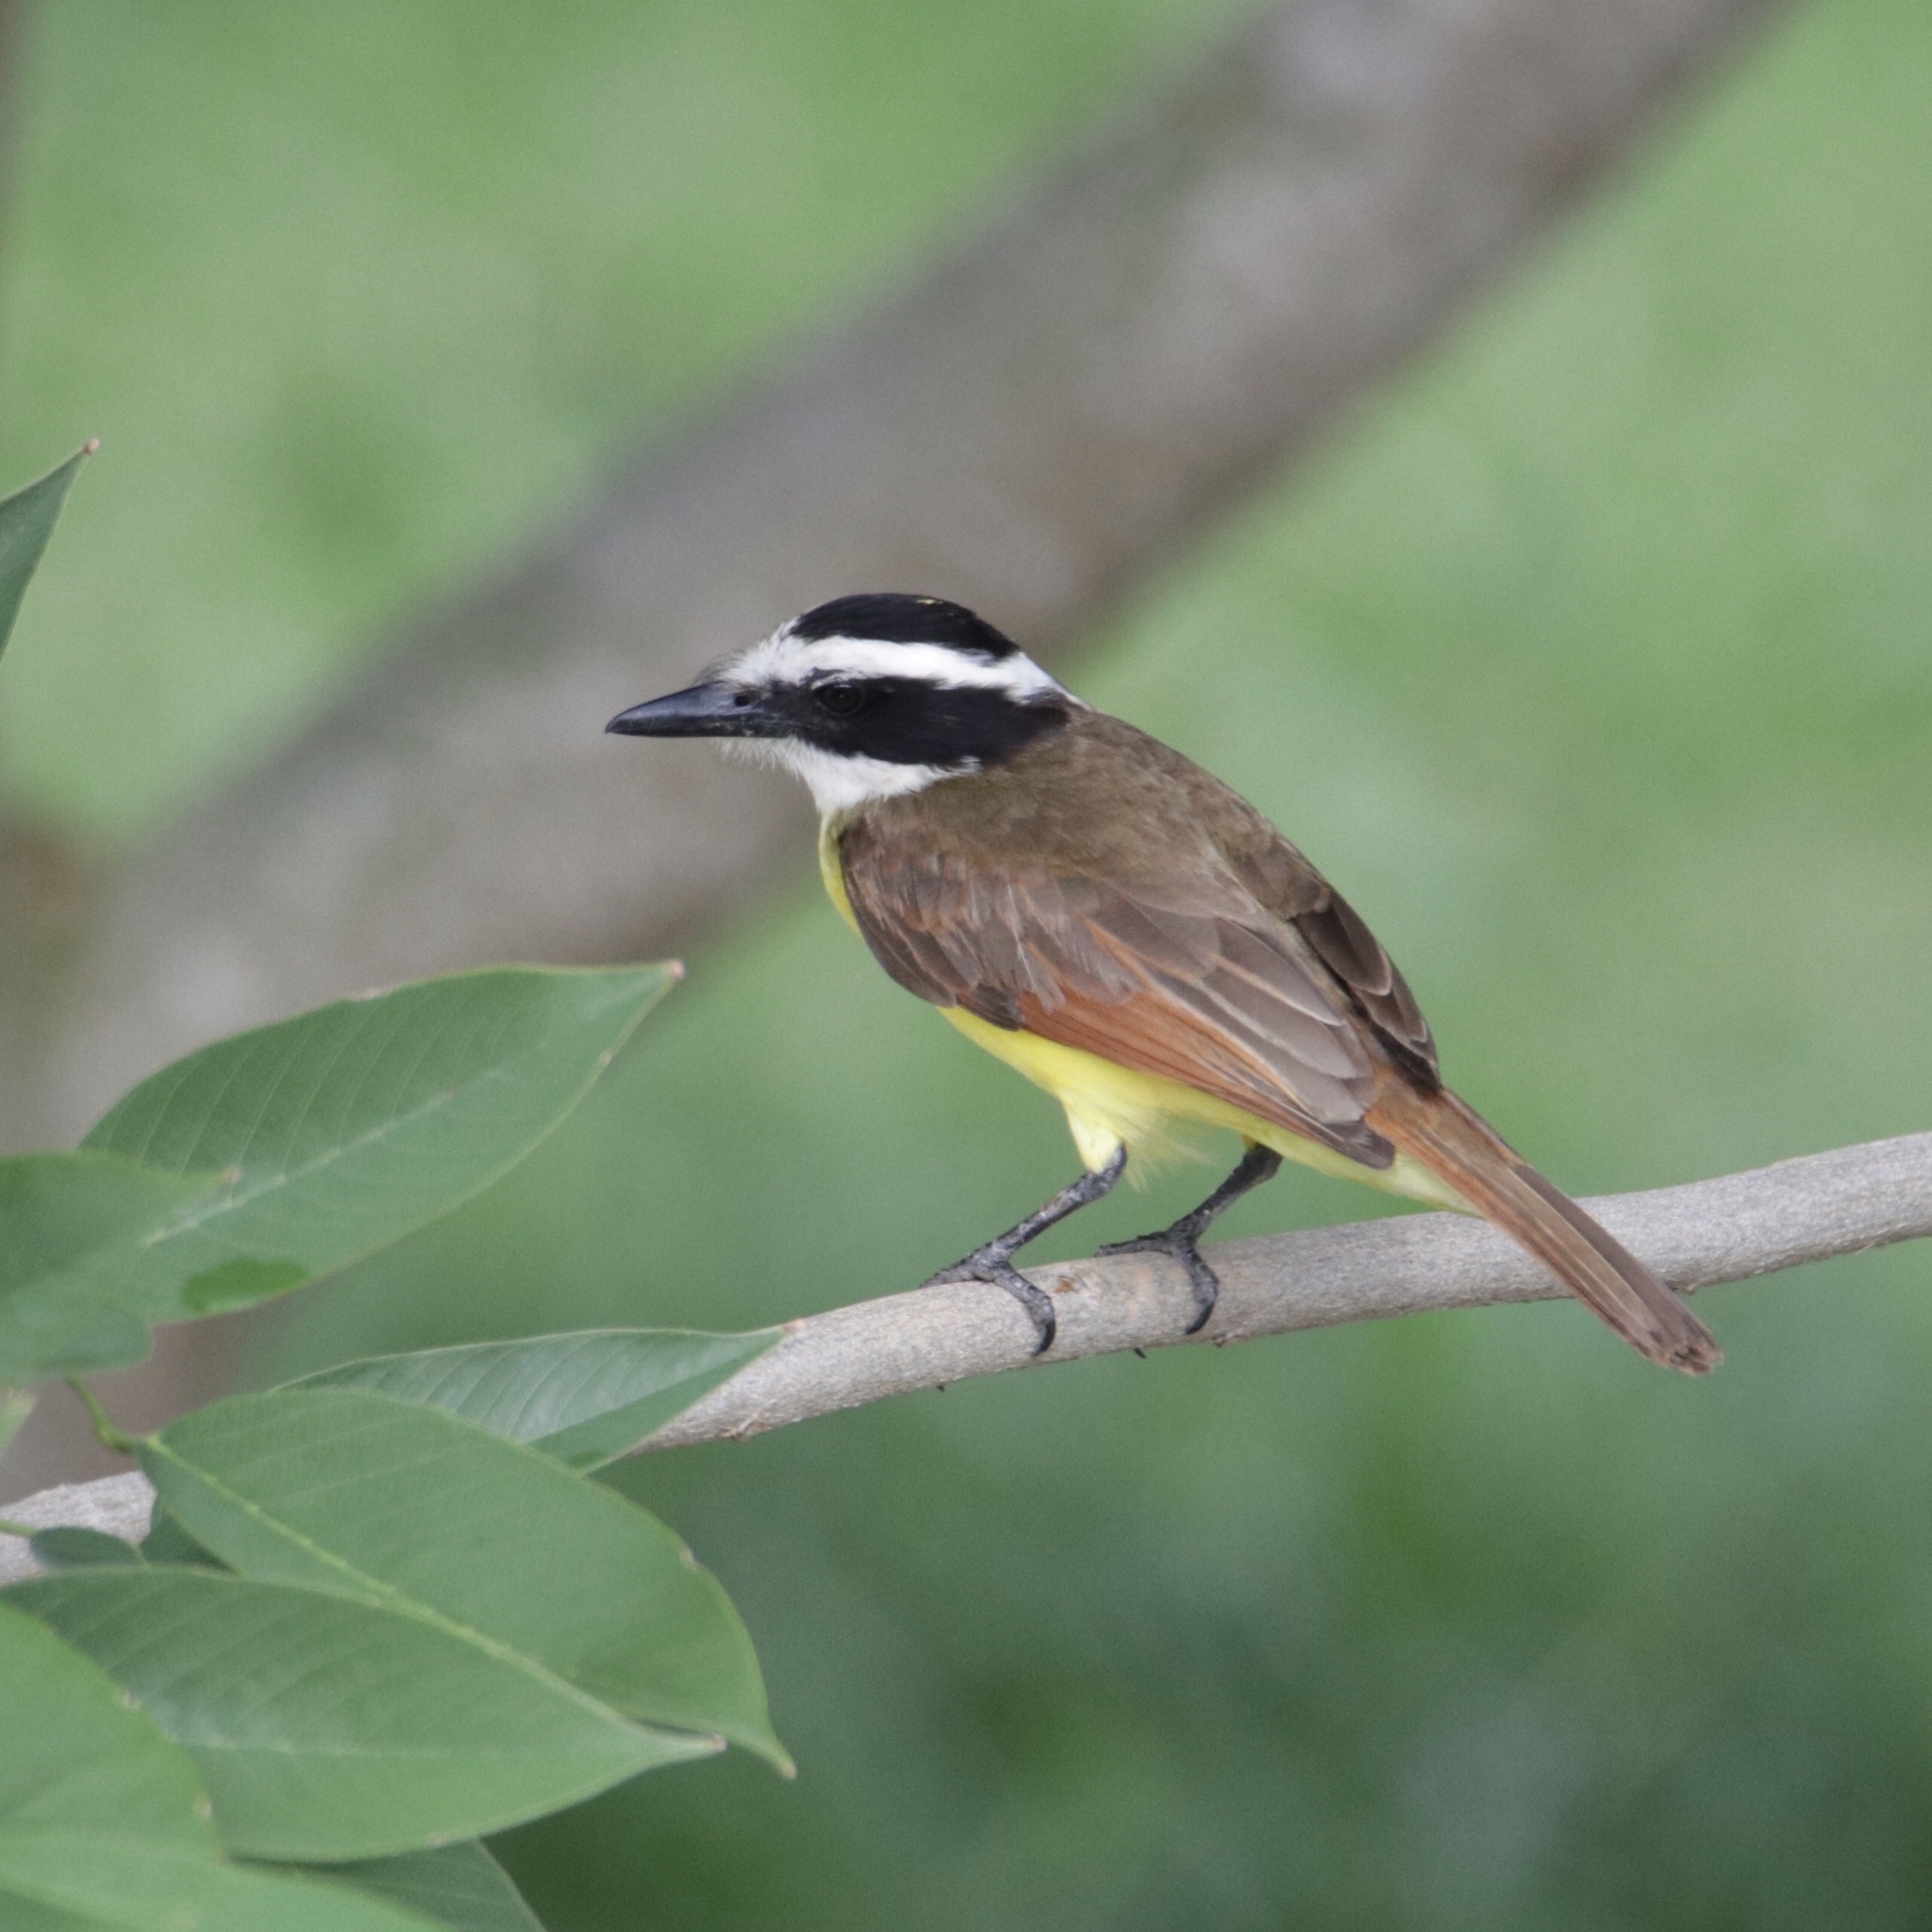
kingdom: Animalia
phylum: Chordata
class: Aves
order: Passeriformes
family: Tyrannidae
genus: Pitangus
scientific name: Pitangus sulphuratus
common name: Great kiskadee
